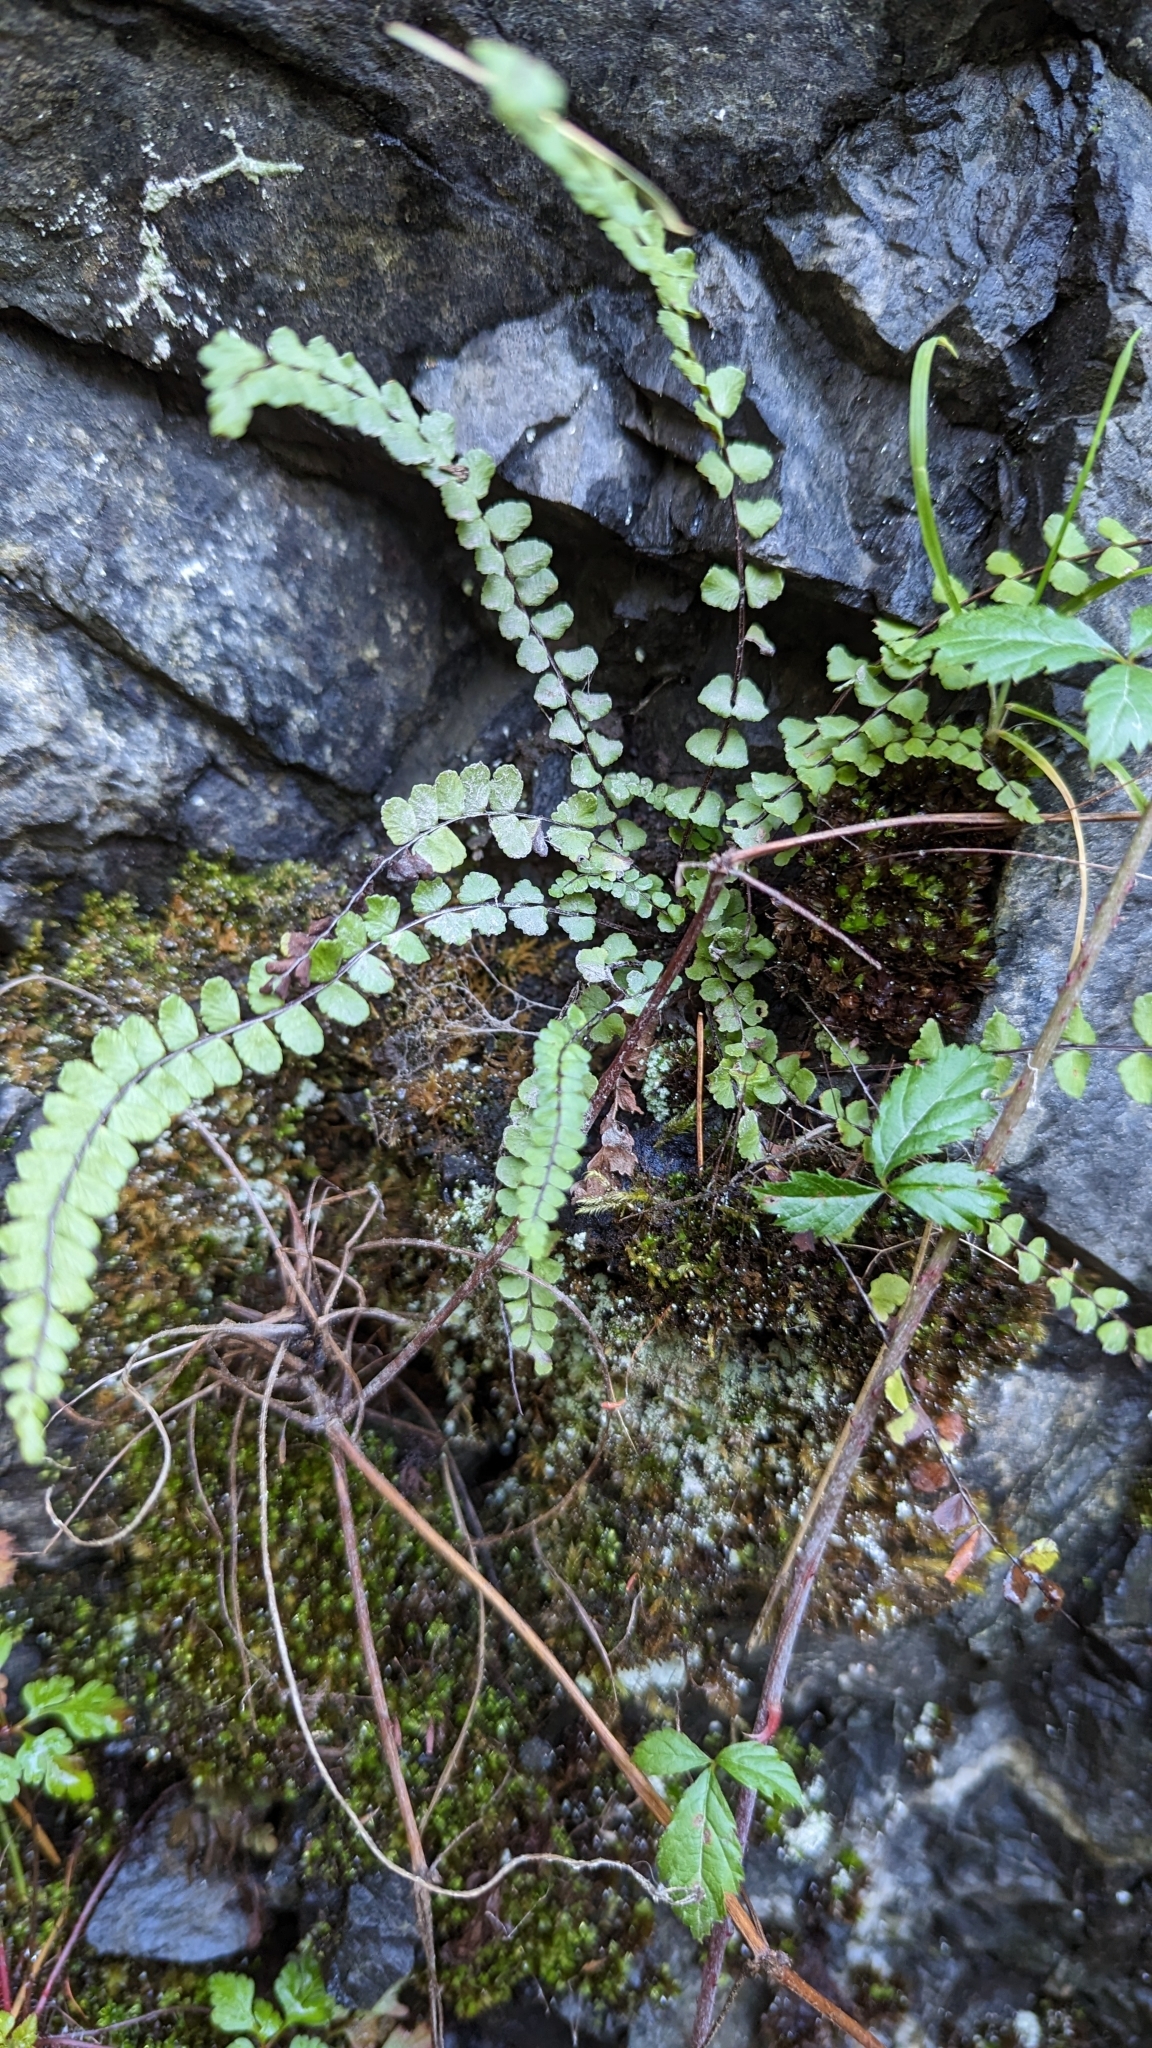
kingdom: Plantae
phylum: Tracheophyta
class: Polypodiopsida
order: Polypodiales
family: Aspleniaceae
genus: Asplenium
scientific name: Asplenium trichomanes
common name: Maidenhair spleenwort
